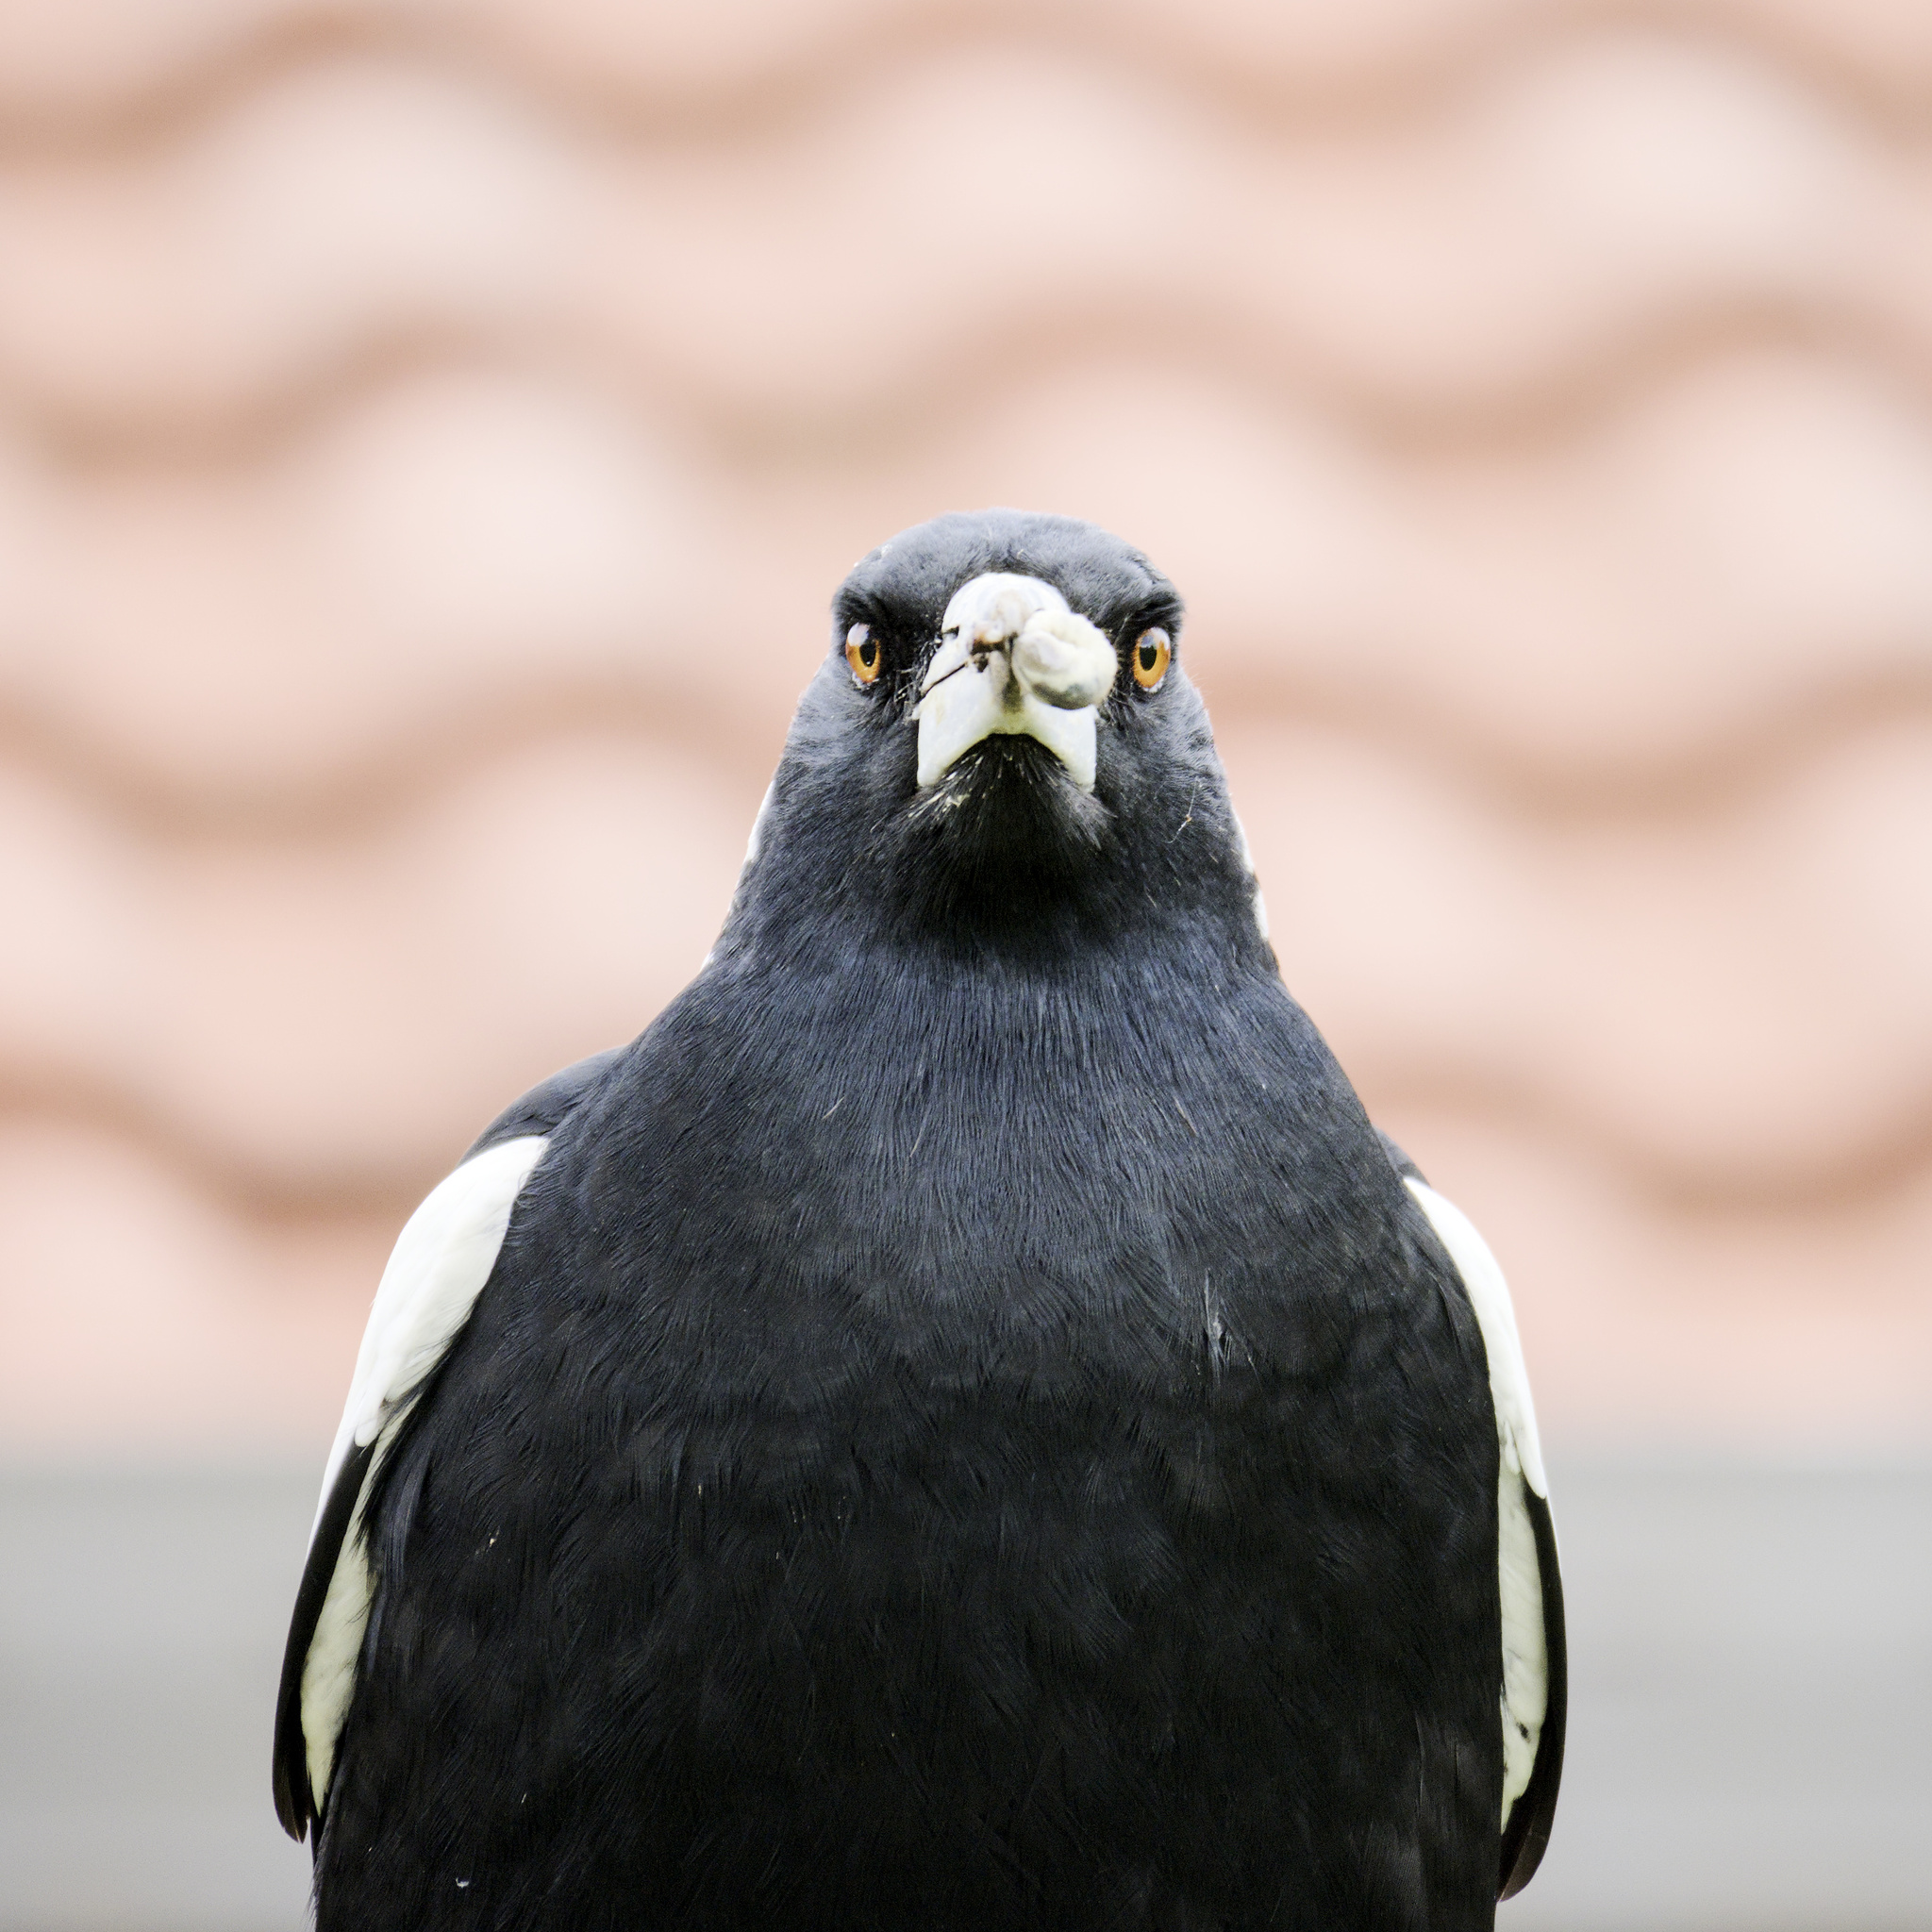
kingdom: Animalia
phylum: Chordata
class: Aves
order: Passeriformes
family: Cracticidae
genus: Gymnorhina
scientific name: Gymnorhina tibicen
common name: Australian magpie
